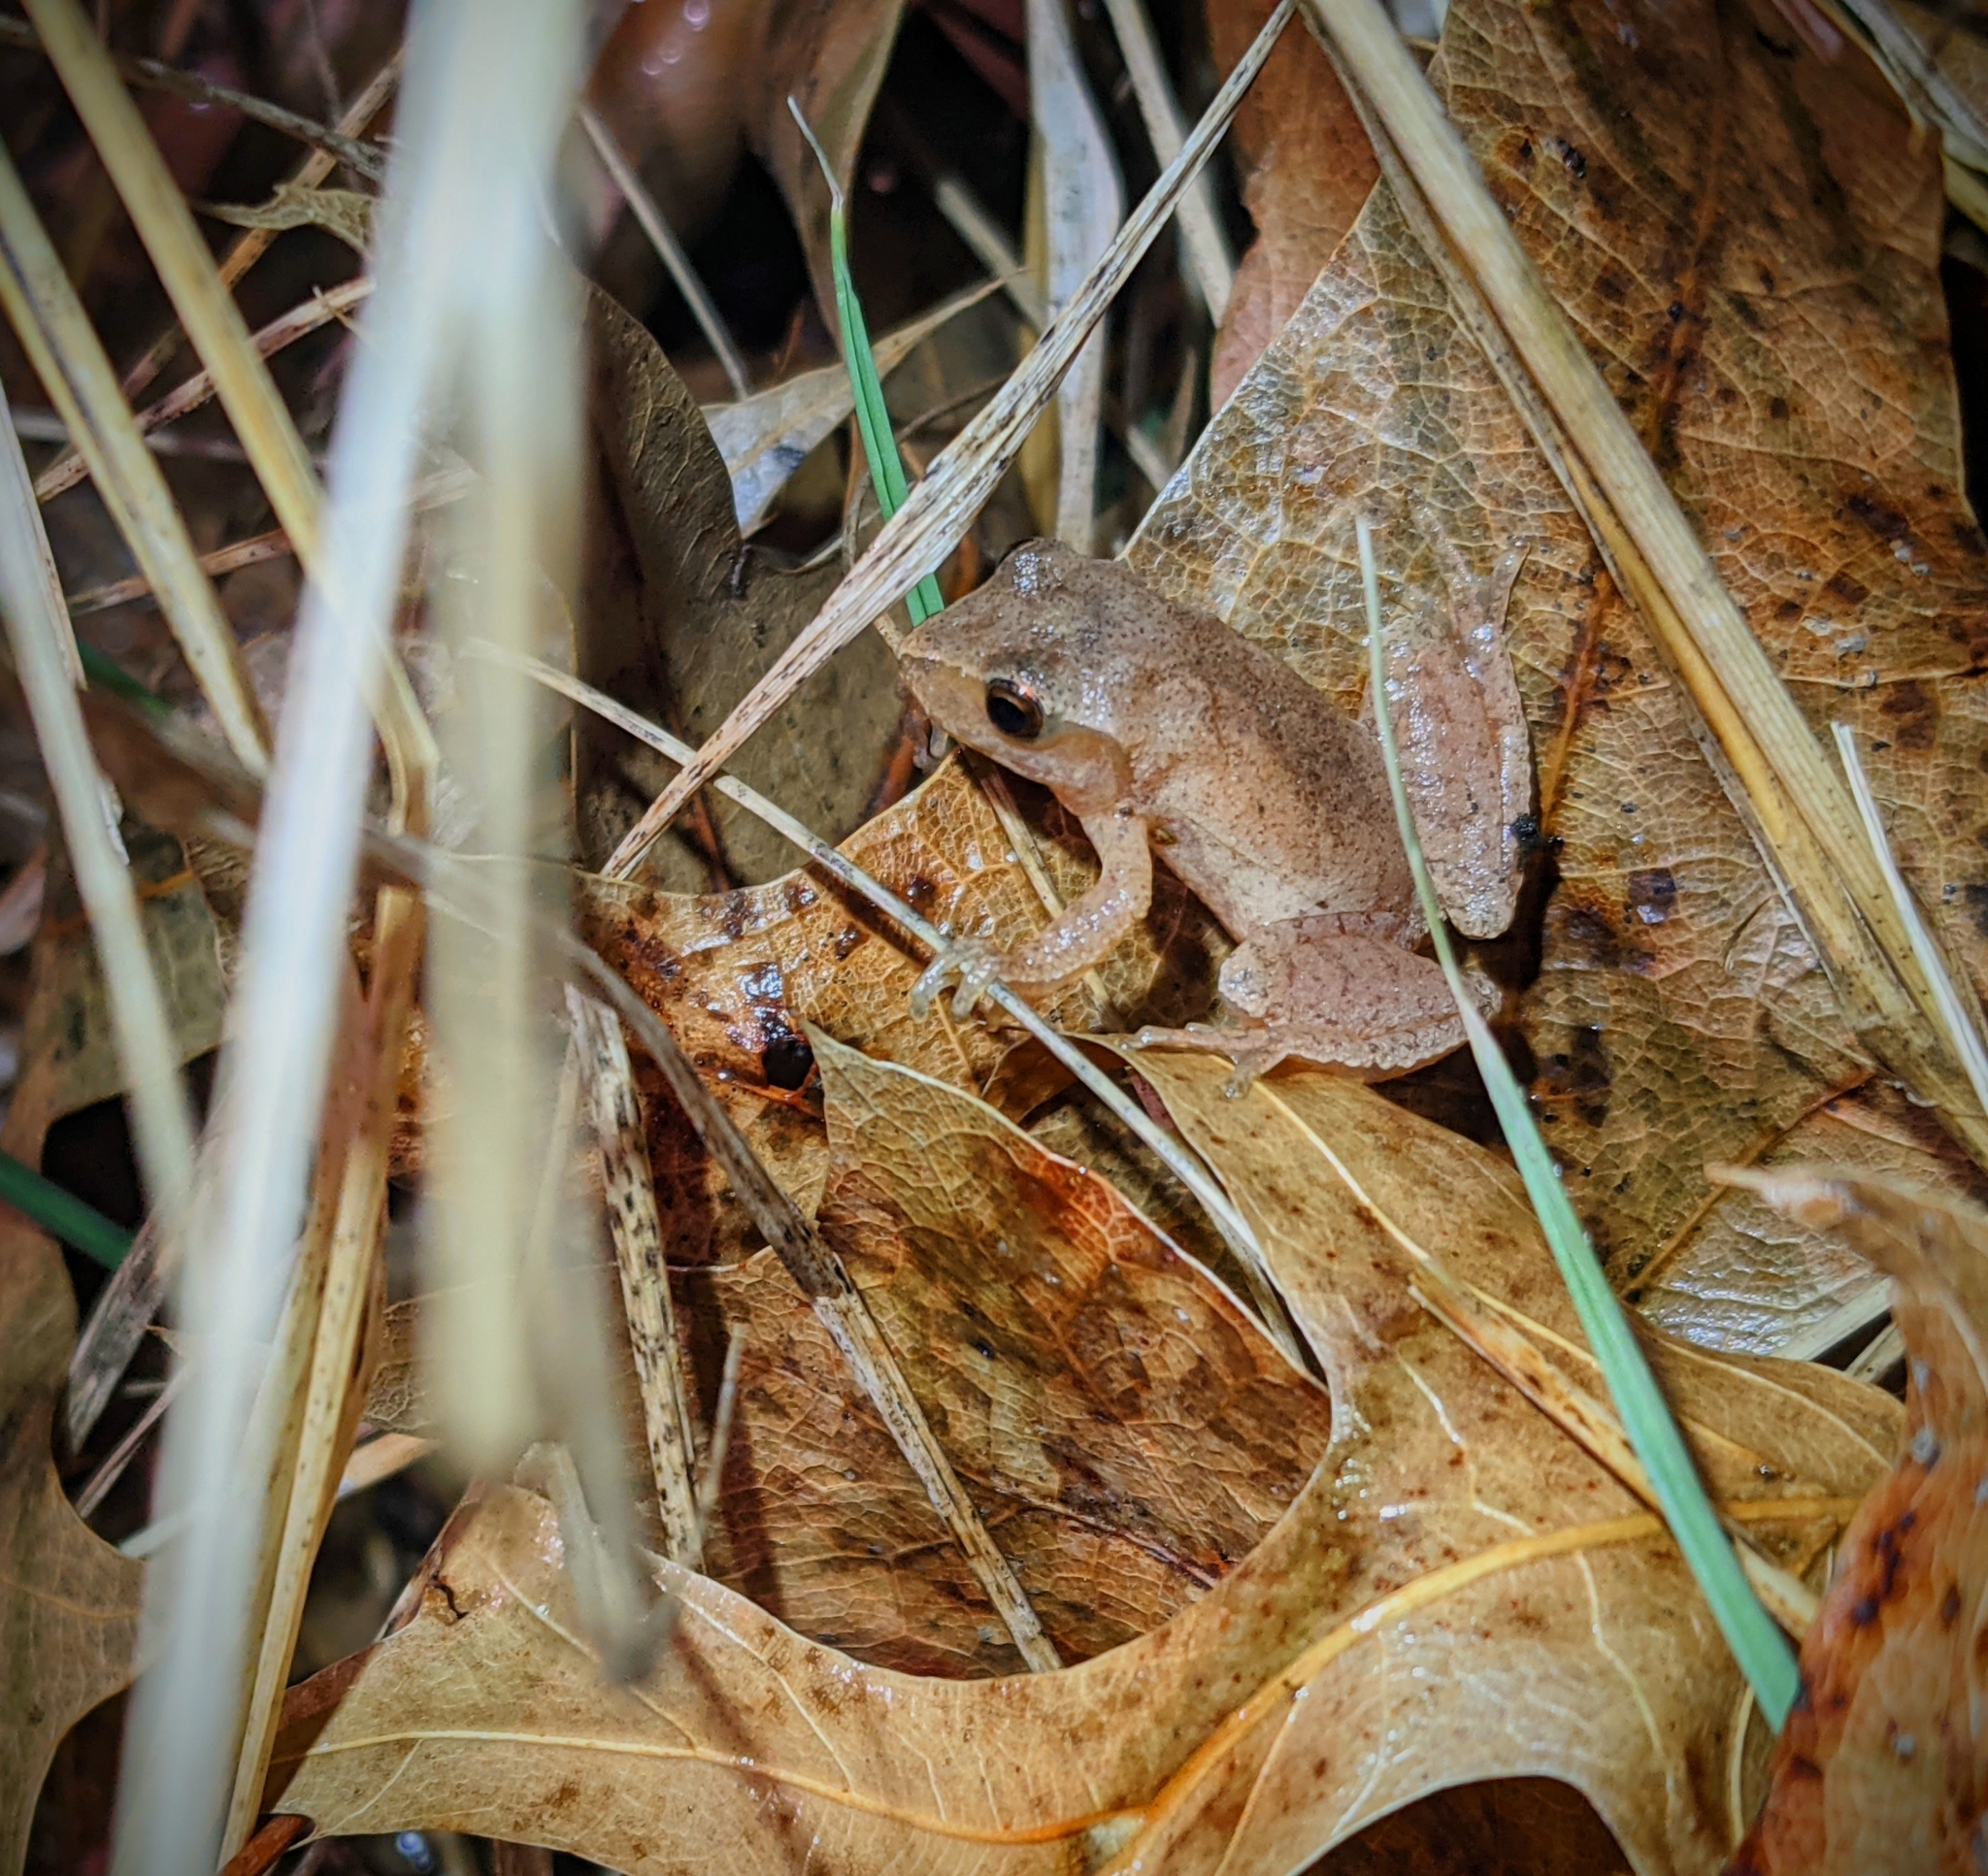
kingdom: Animalia
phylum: Chordata
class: Amphibia
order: Anura
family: Hylidae
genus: Pseudacris
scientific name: Pseudacris crucifer
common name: Spring peeper
